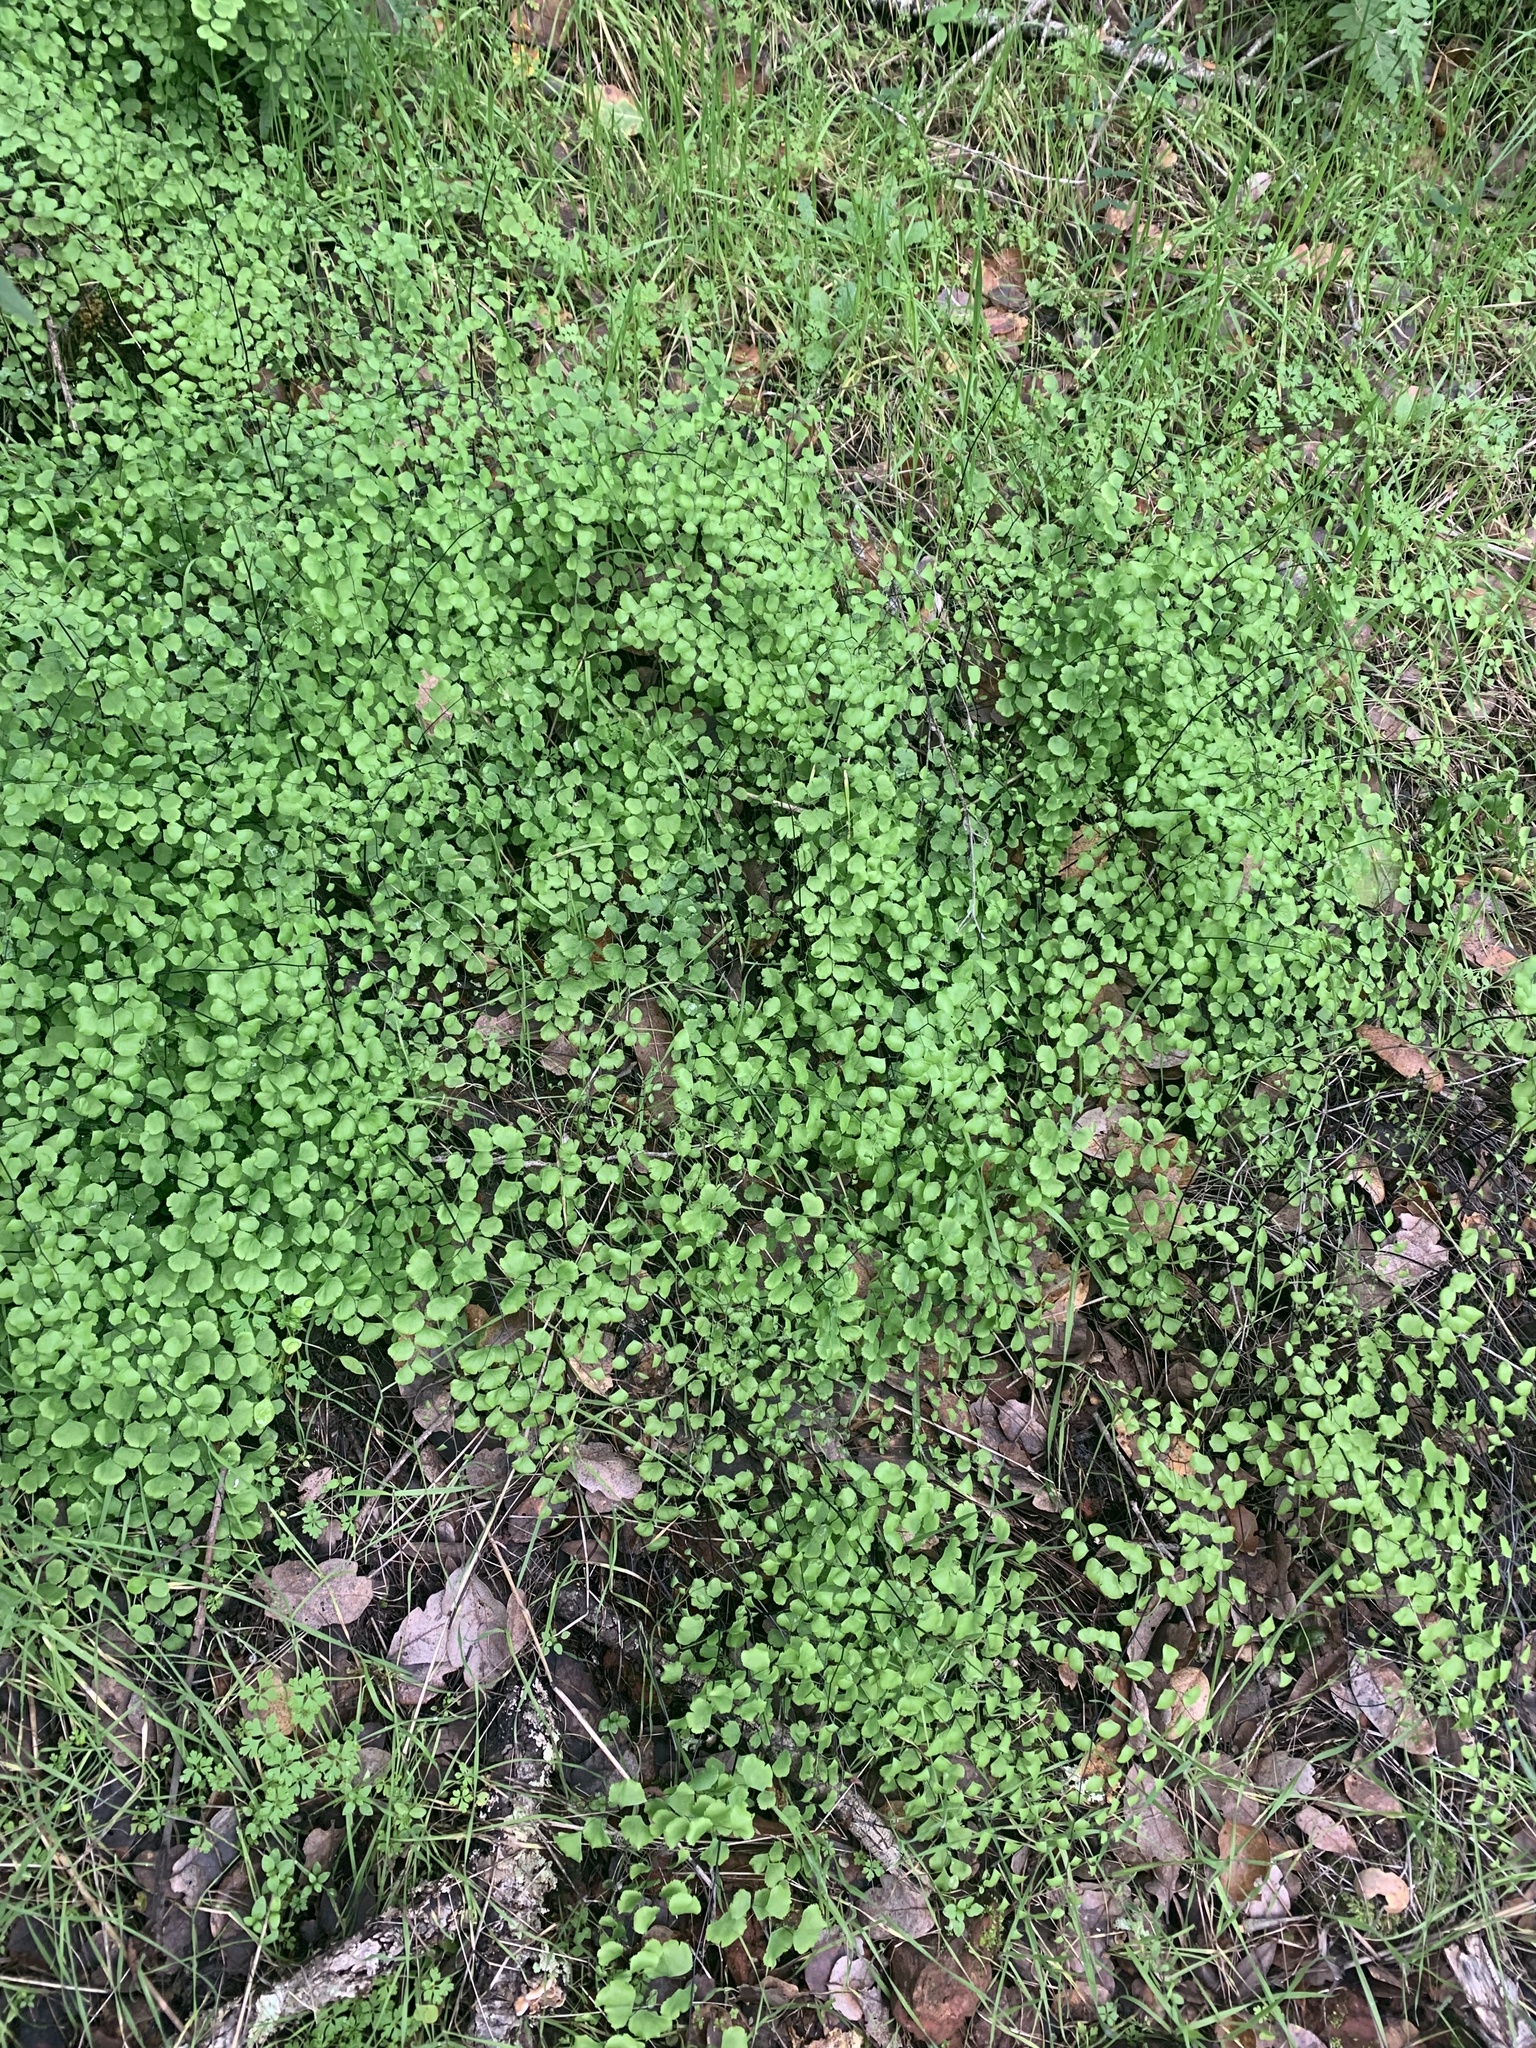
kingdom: Plantae
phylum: Tracheophyta
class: Polypodiopsida
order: Polypodiales
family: Pteridaceae
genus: Adiantum
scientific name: Adiantum jordanii
